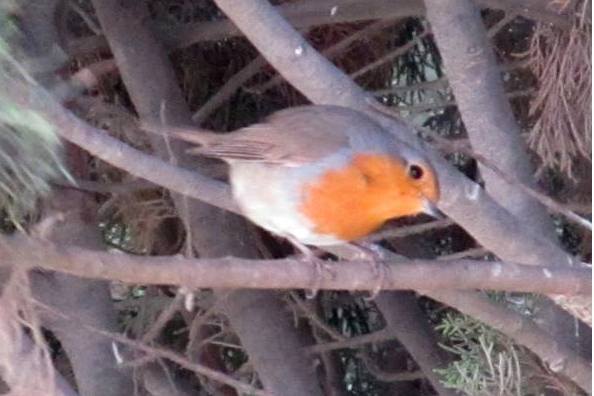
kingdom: Animalia
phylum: Chordata
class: Aves
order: Passeriformes
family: Muscicapidae
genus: Erithacus
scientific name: Erithacus rubecula
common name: European robin
